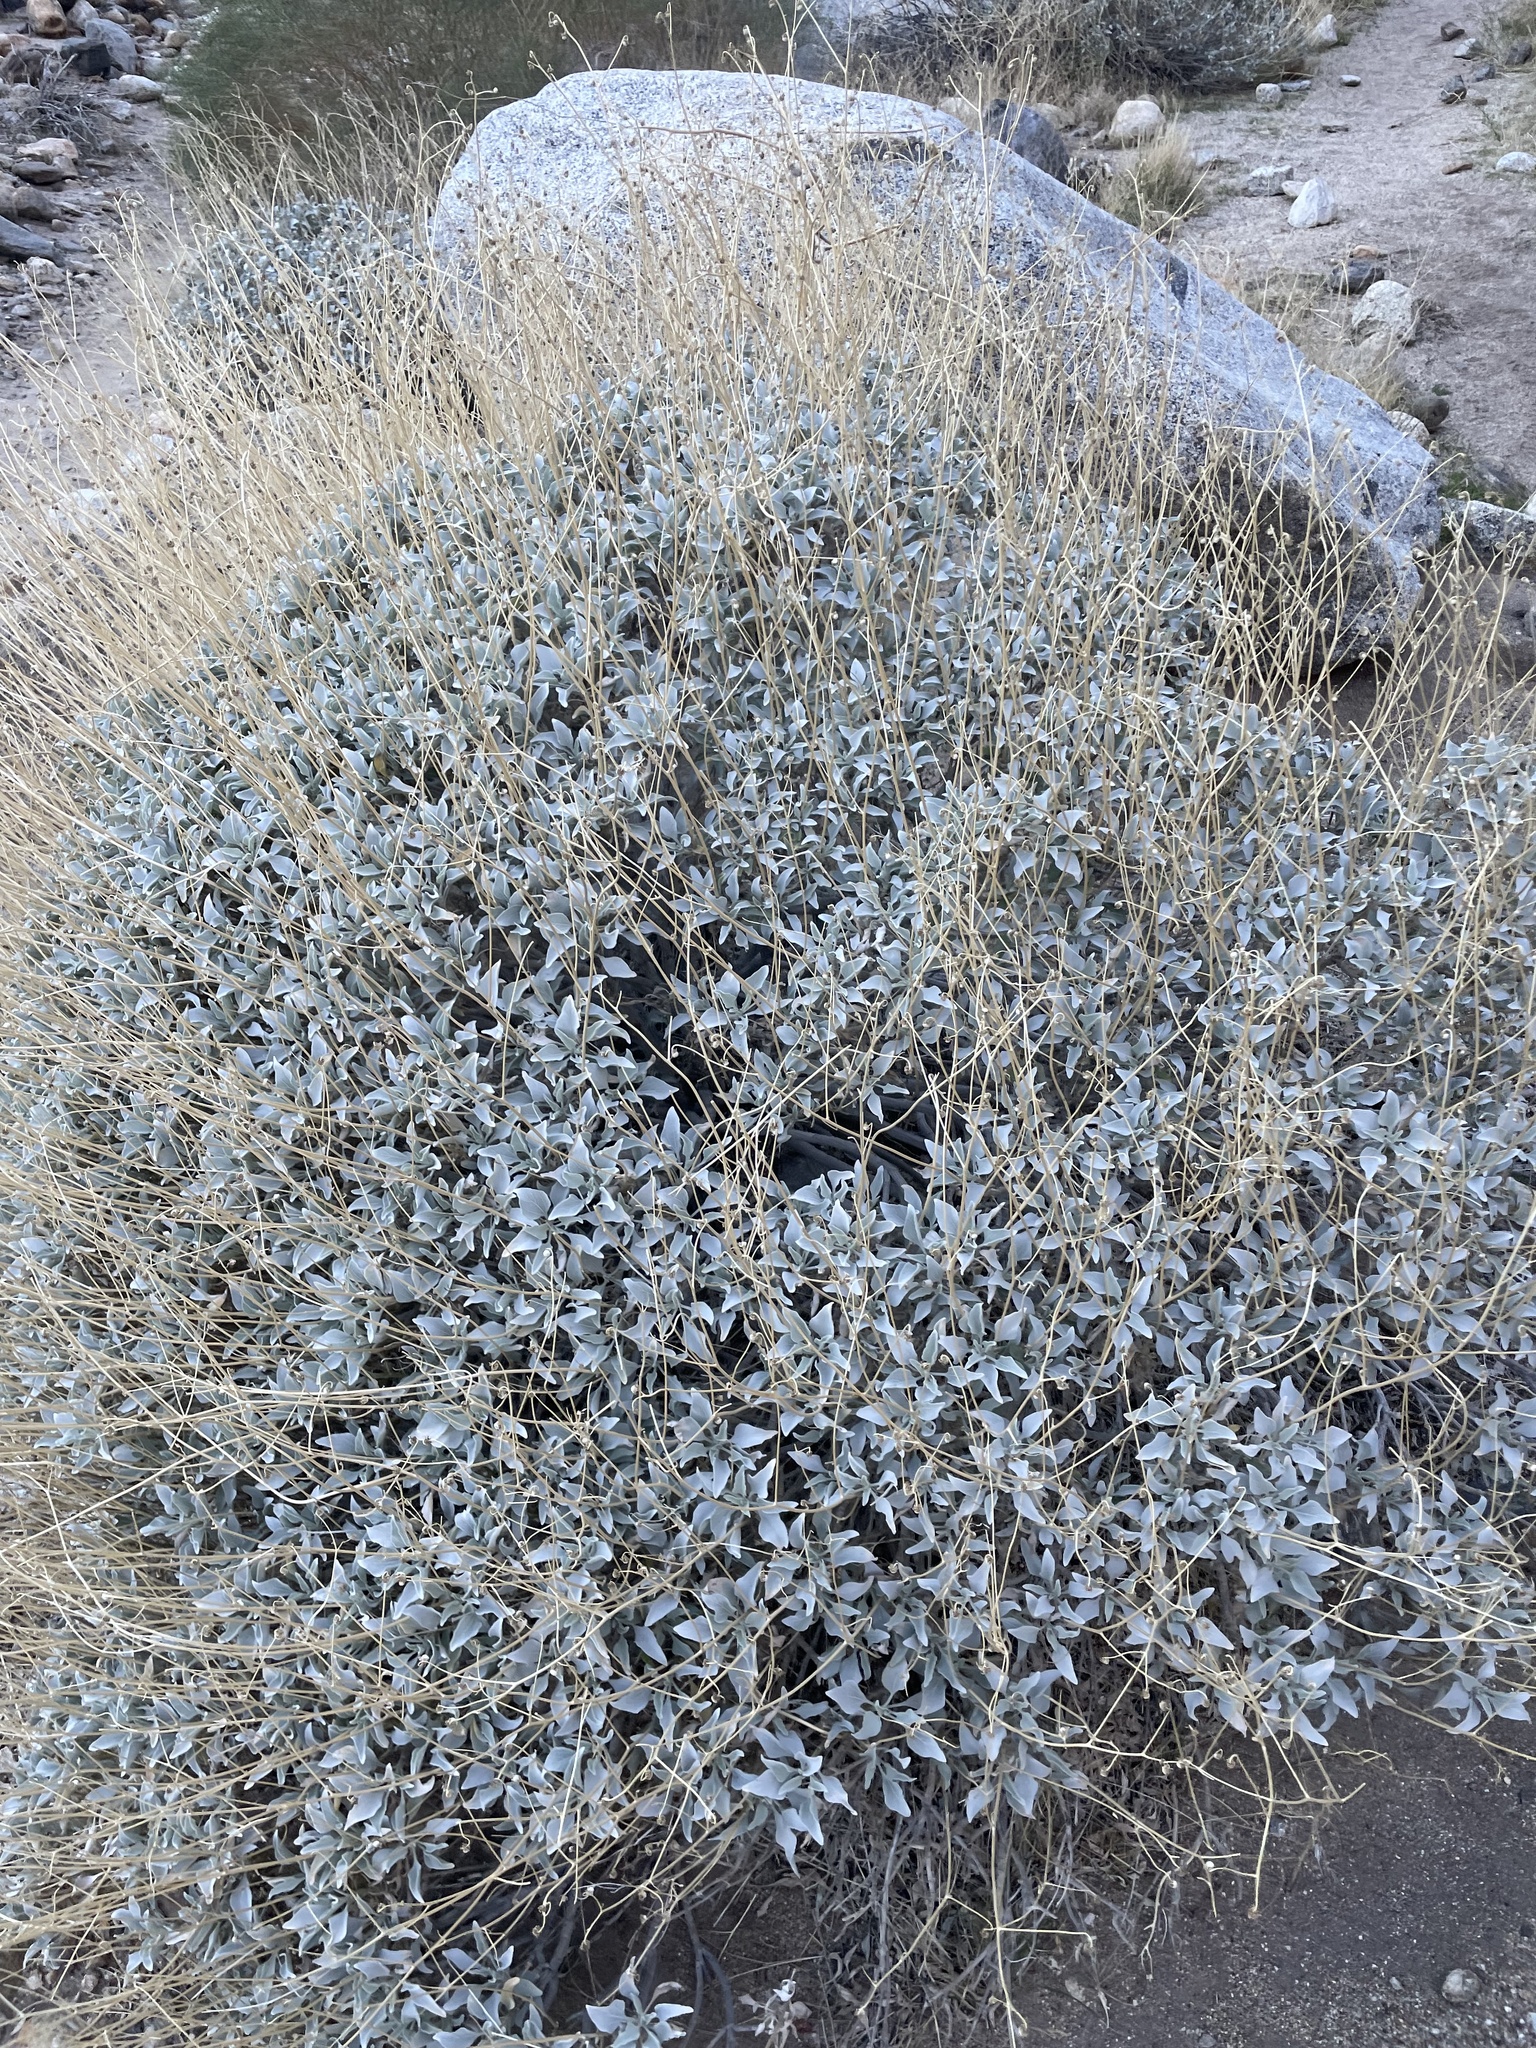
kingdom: Plantae
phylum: Tracheophyta
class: Magnoliopsida
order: Asterales
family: Asteraceae
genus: Encelia
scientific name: Encelia farinosa
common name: Brittlebush
